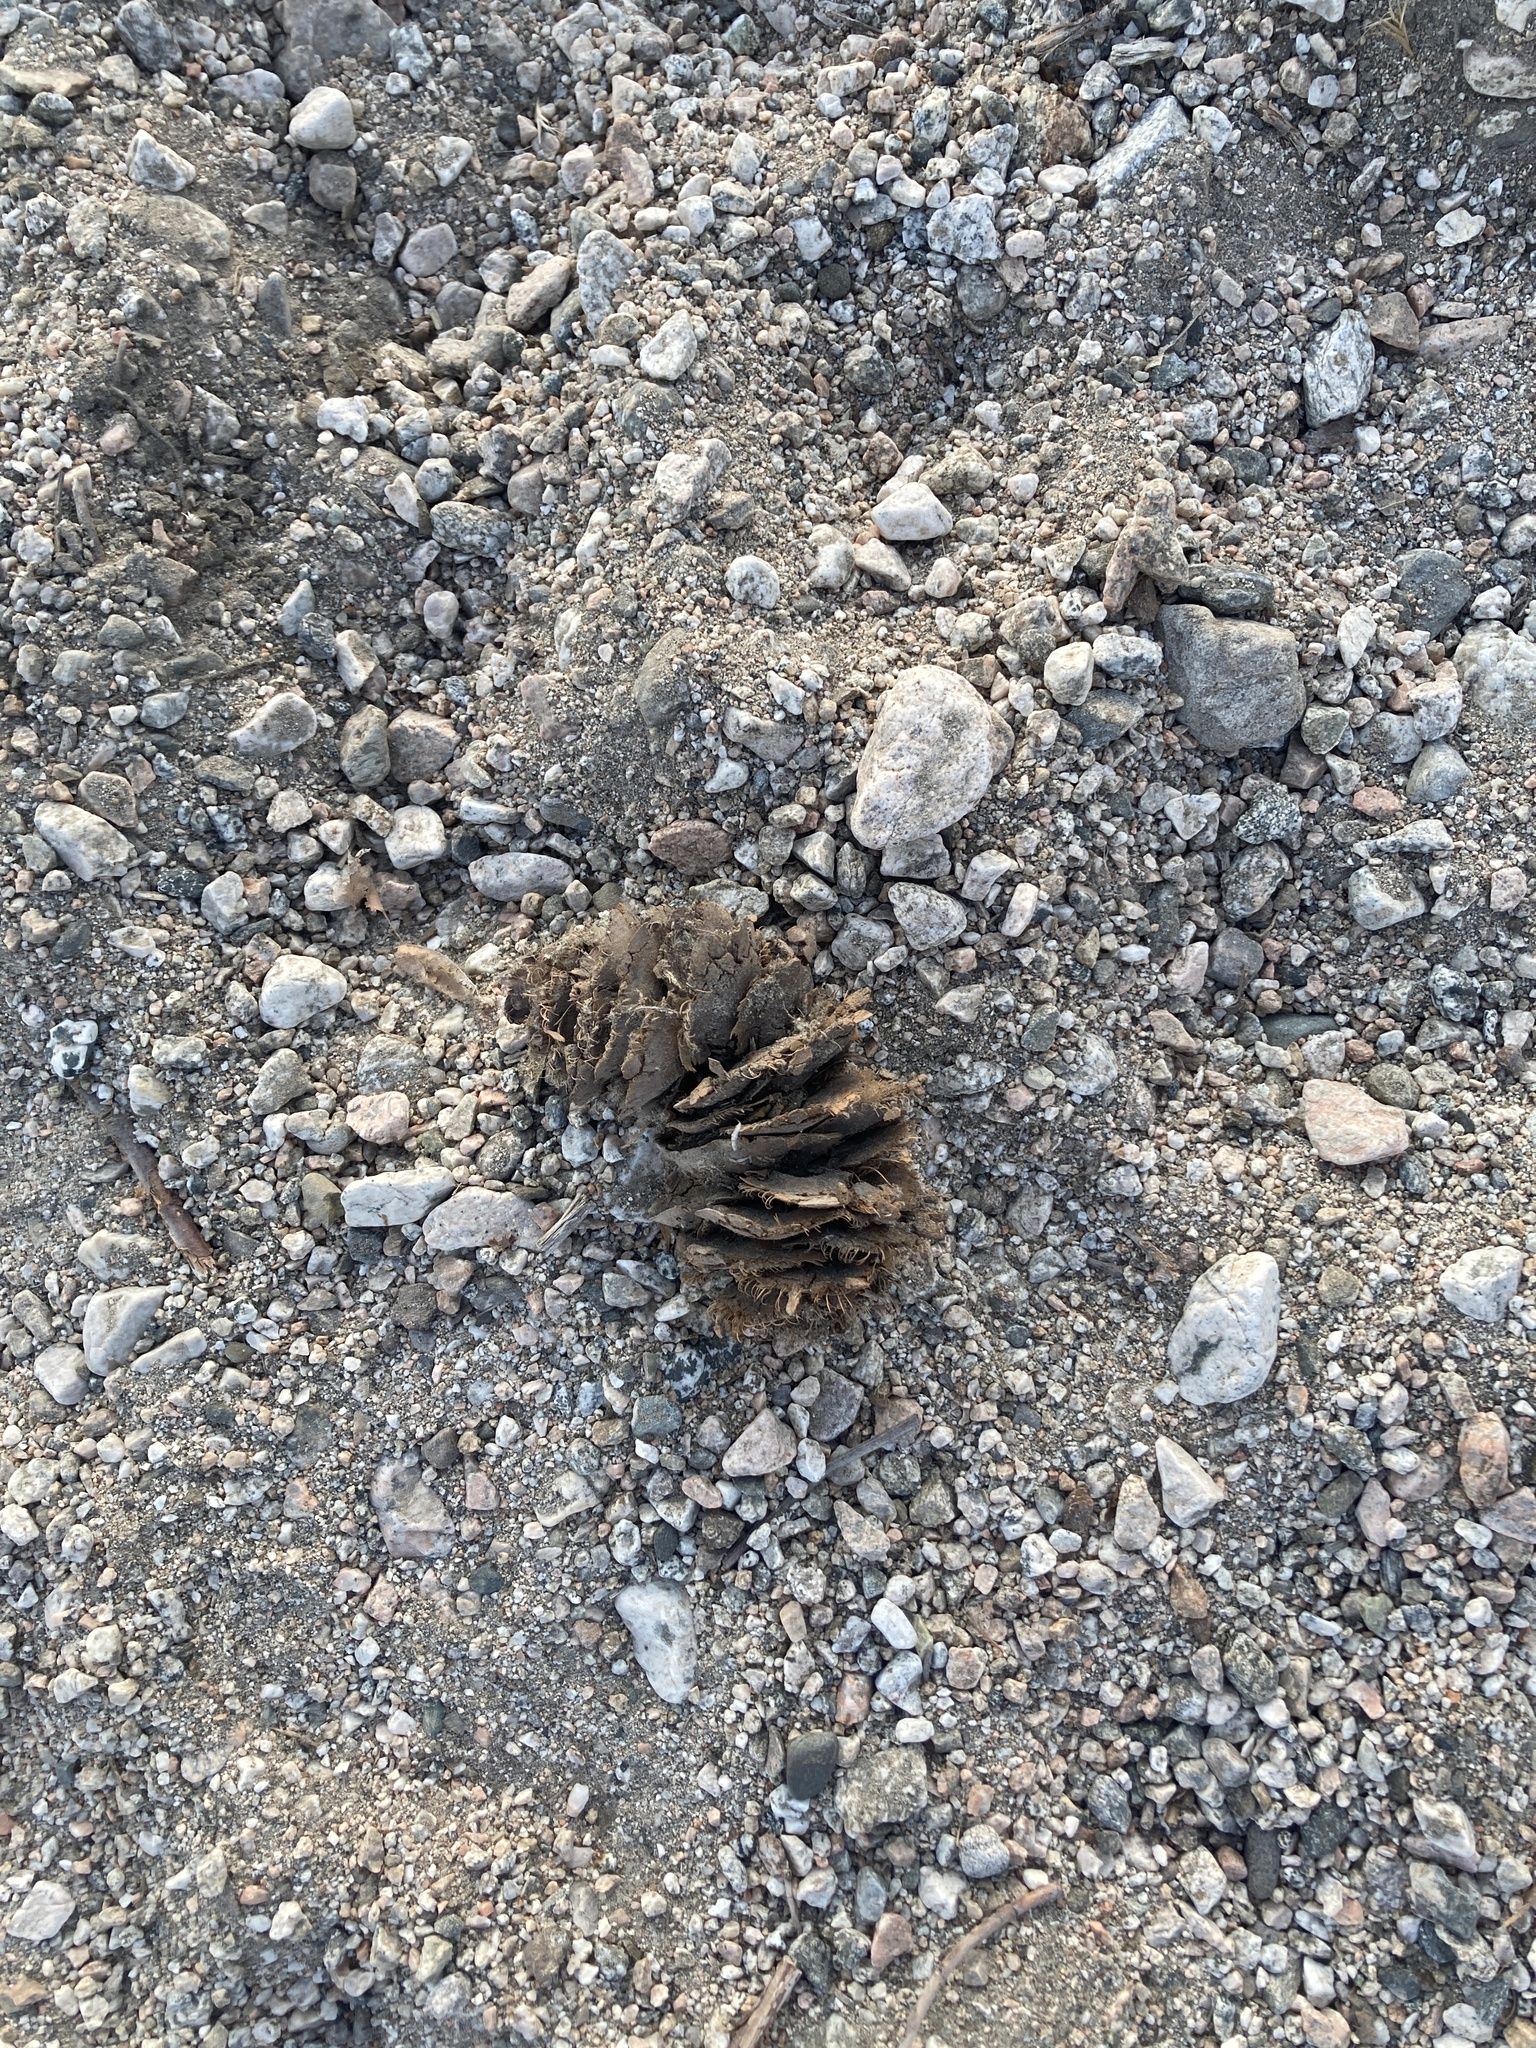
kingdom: Plantae
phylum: Tracheophyta
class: Pinopsida
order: Pinales
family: Pinaceae
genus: Pseudotsuga
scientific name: Pseudotsuga macrocarpa
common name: Big-cone douglas-fir
